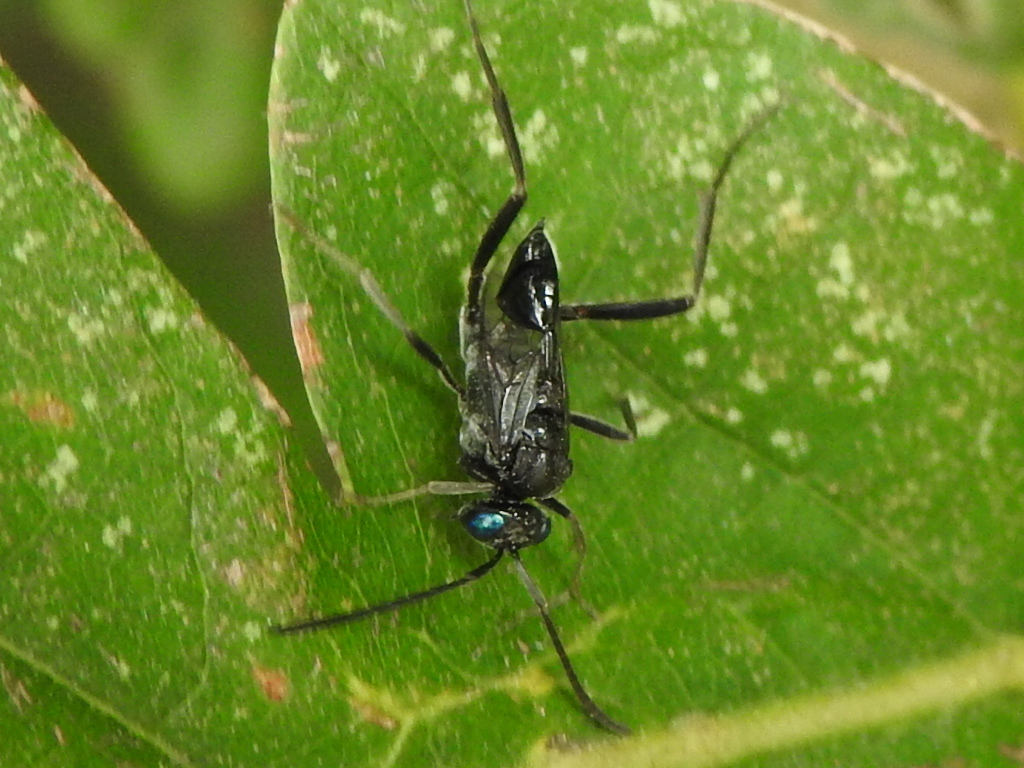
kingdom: Animalia
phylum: Arthropoda
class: Insecta
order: Hymenoptera
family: Evaniidae
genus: Evania
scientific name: Evania appendigaster
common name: Ensign wasp
